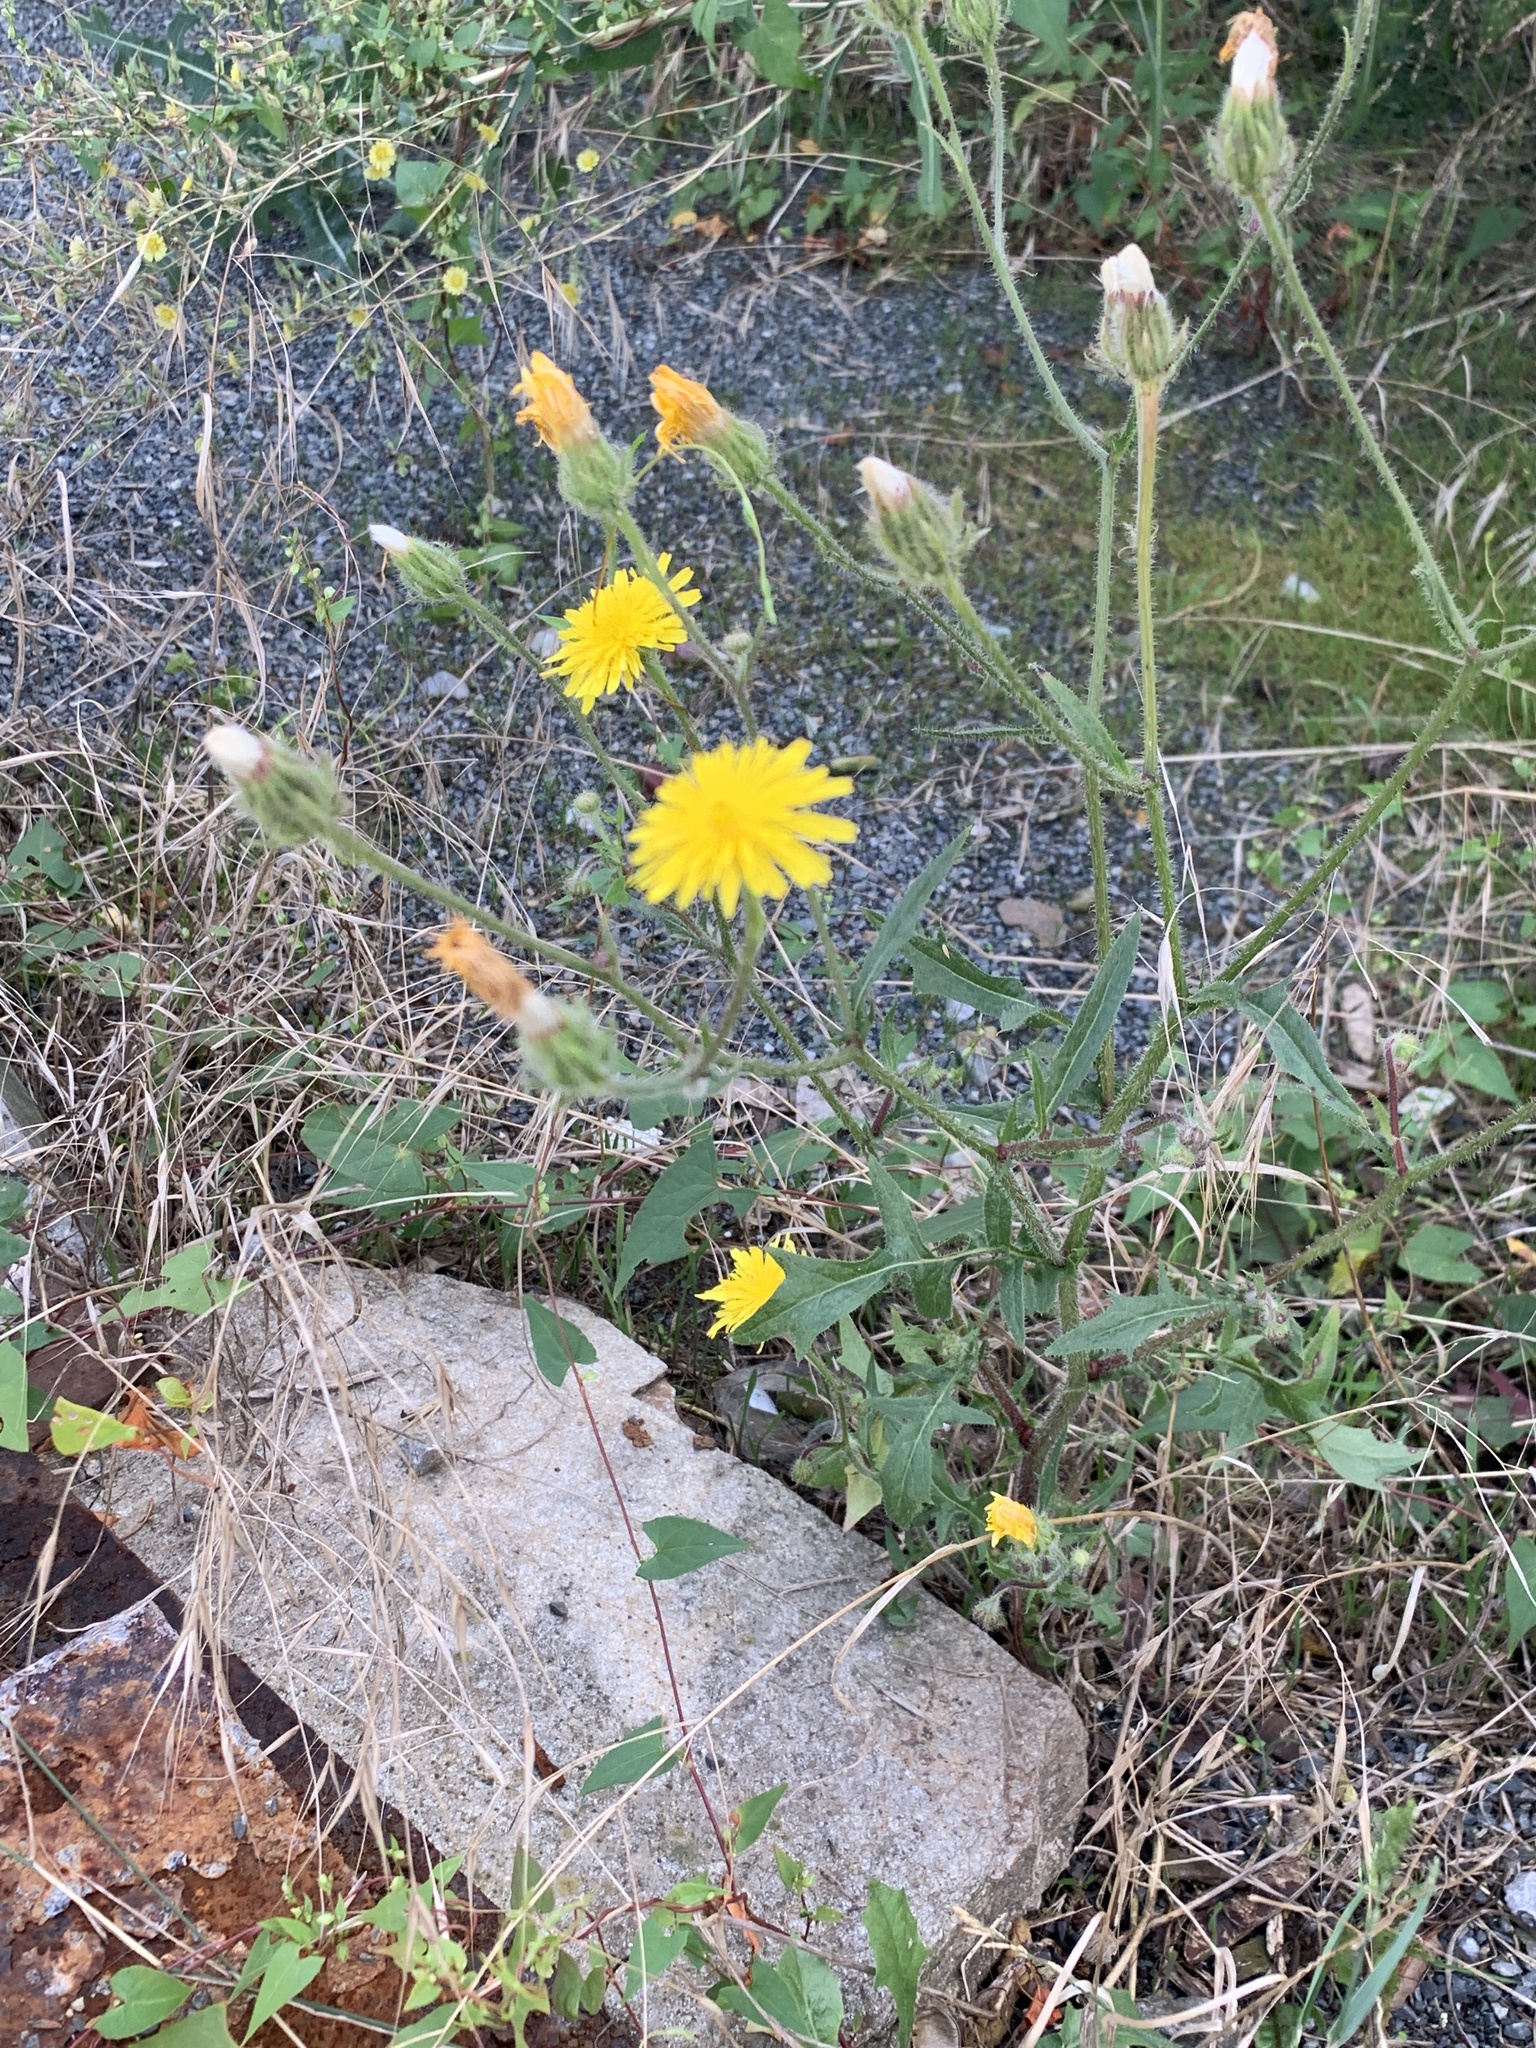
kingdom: Plantae
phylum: Tracheophyta
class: Magnoliopsida
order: Asterales
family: Asteraceae
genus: Crepis
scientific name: Crepis foetida
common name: Stinking hawk's-beard
